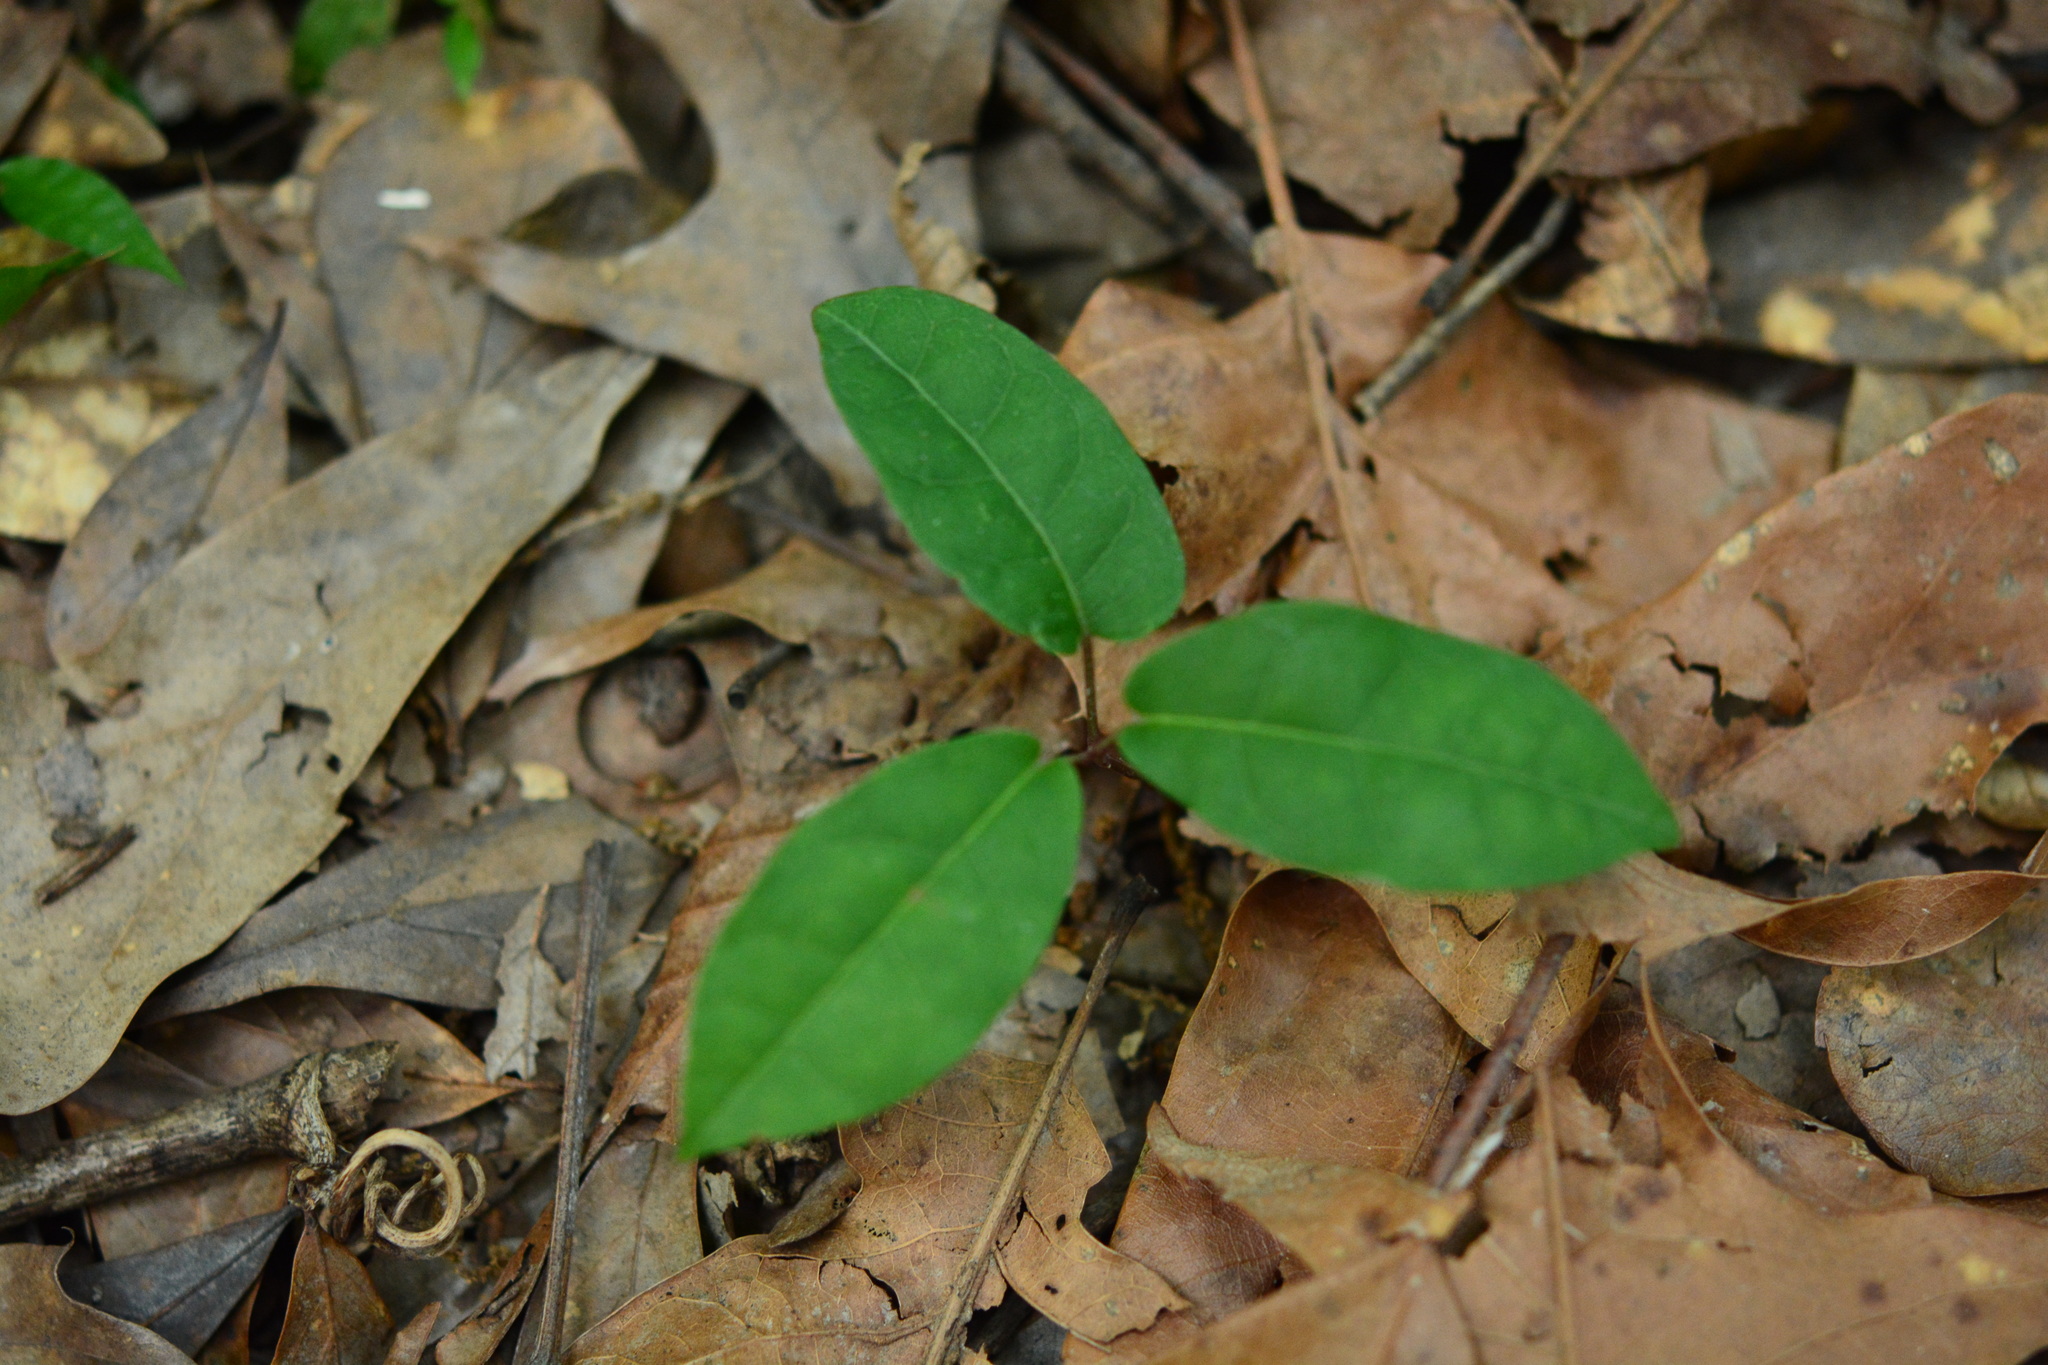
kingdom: Plantae
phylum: Tracheophyta
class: Magnoliopsida
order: Lamiales
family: Bignoniaceae
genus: Bignonia
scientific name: Bignonia capreolata
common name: Crossvine
